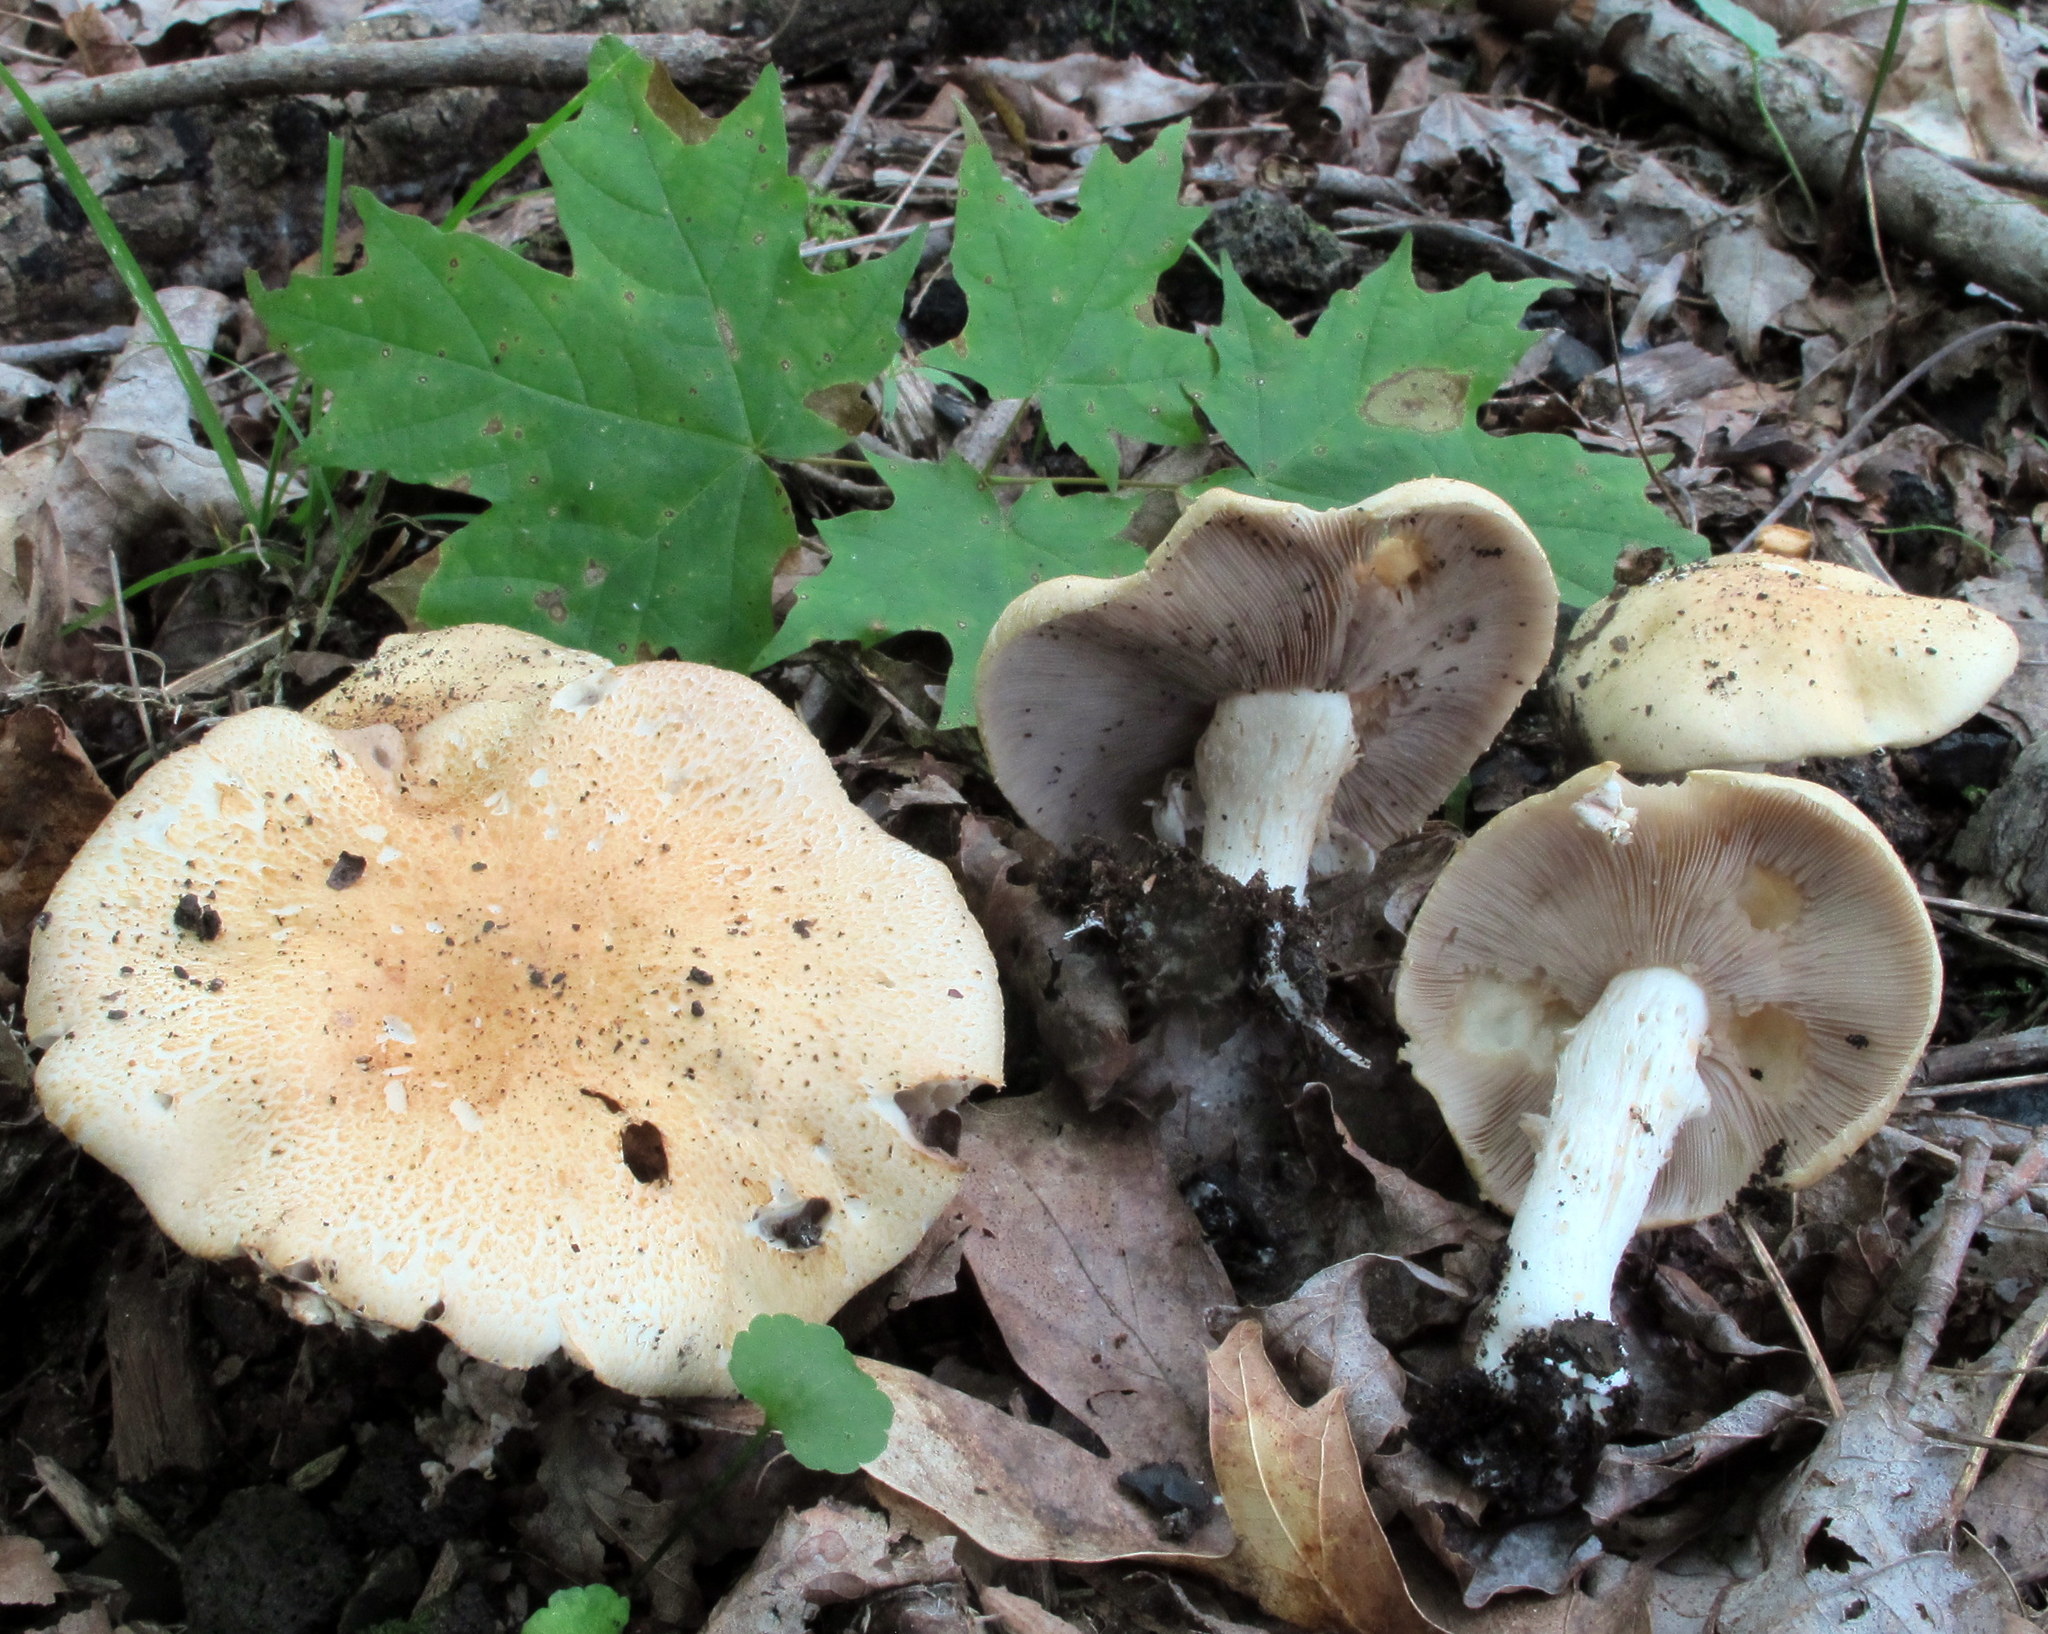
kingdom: Fungi
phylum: Basidiomycota
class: Agaricomycetes
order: Agaricales
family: Strophariaceae
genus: Stropharia
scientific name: Stropharia hardii
